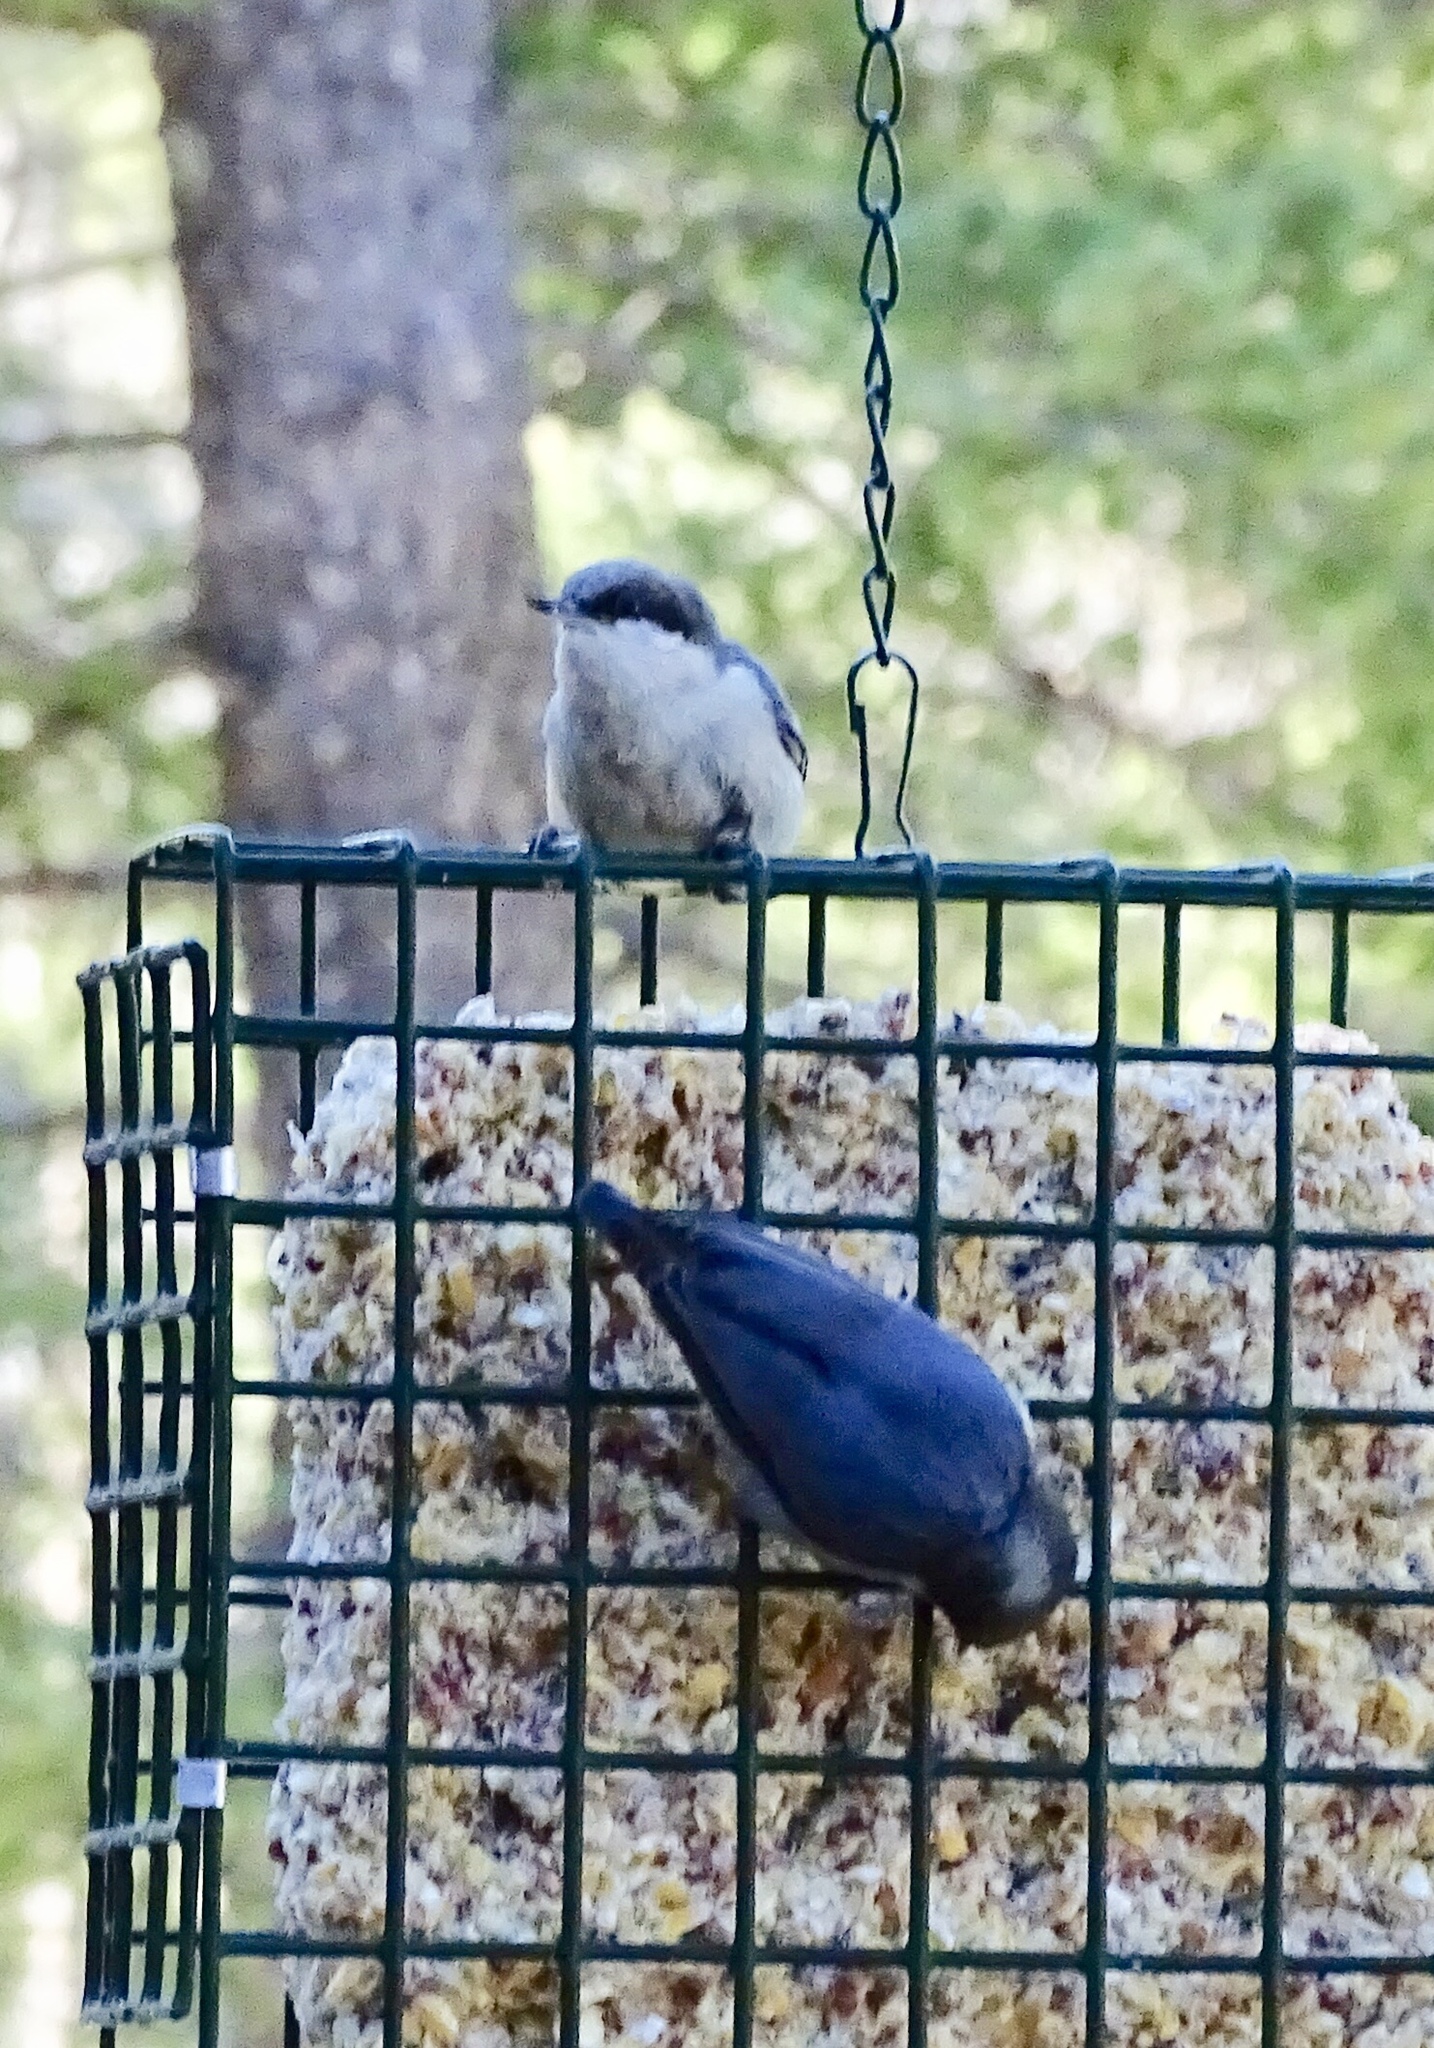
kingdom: Animalia
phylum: Chordata
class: Aves
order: Passeriformes
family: Sittidae
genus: Sitta
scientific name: Sitta pygmaea
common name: Pygmy nuthatch
